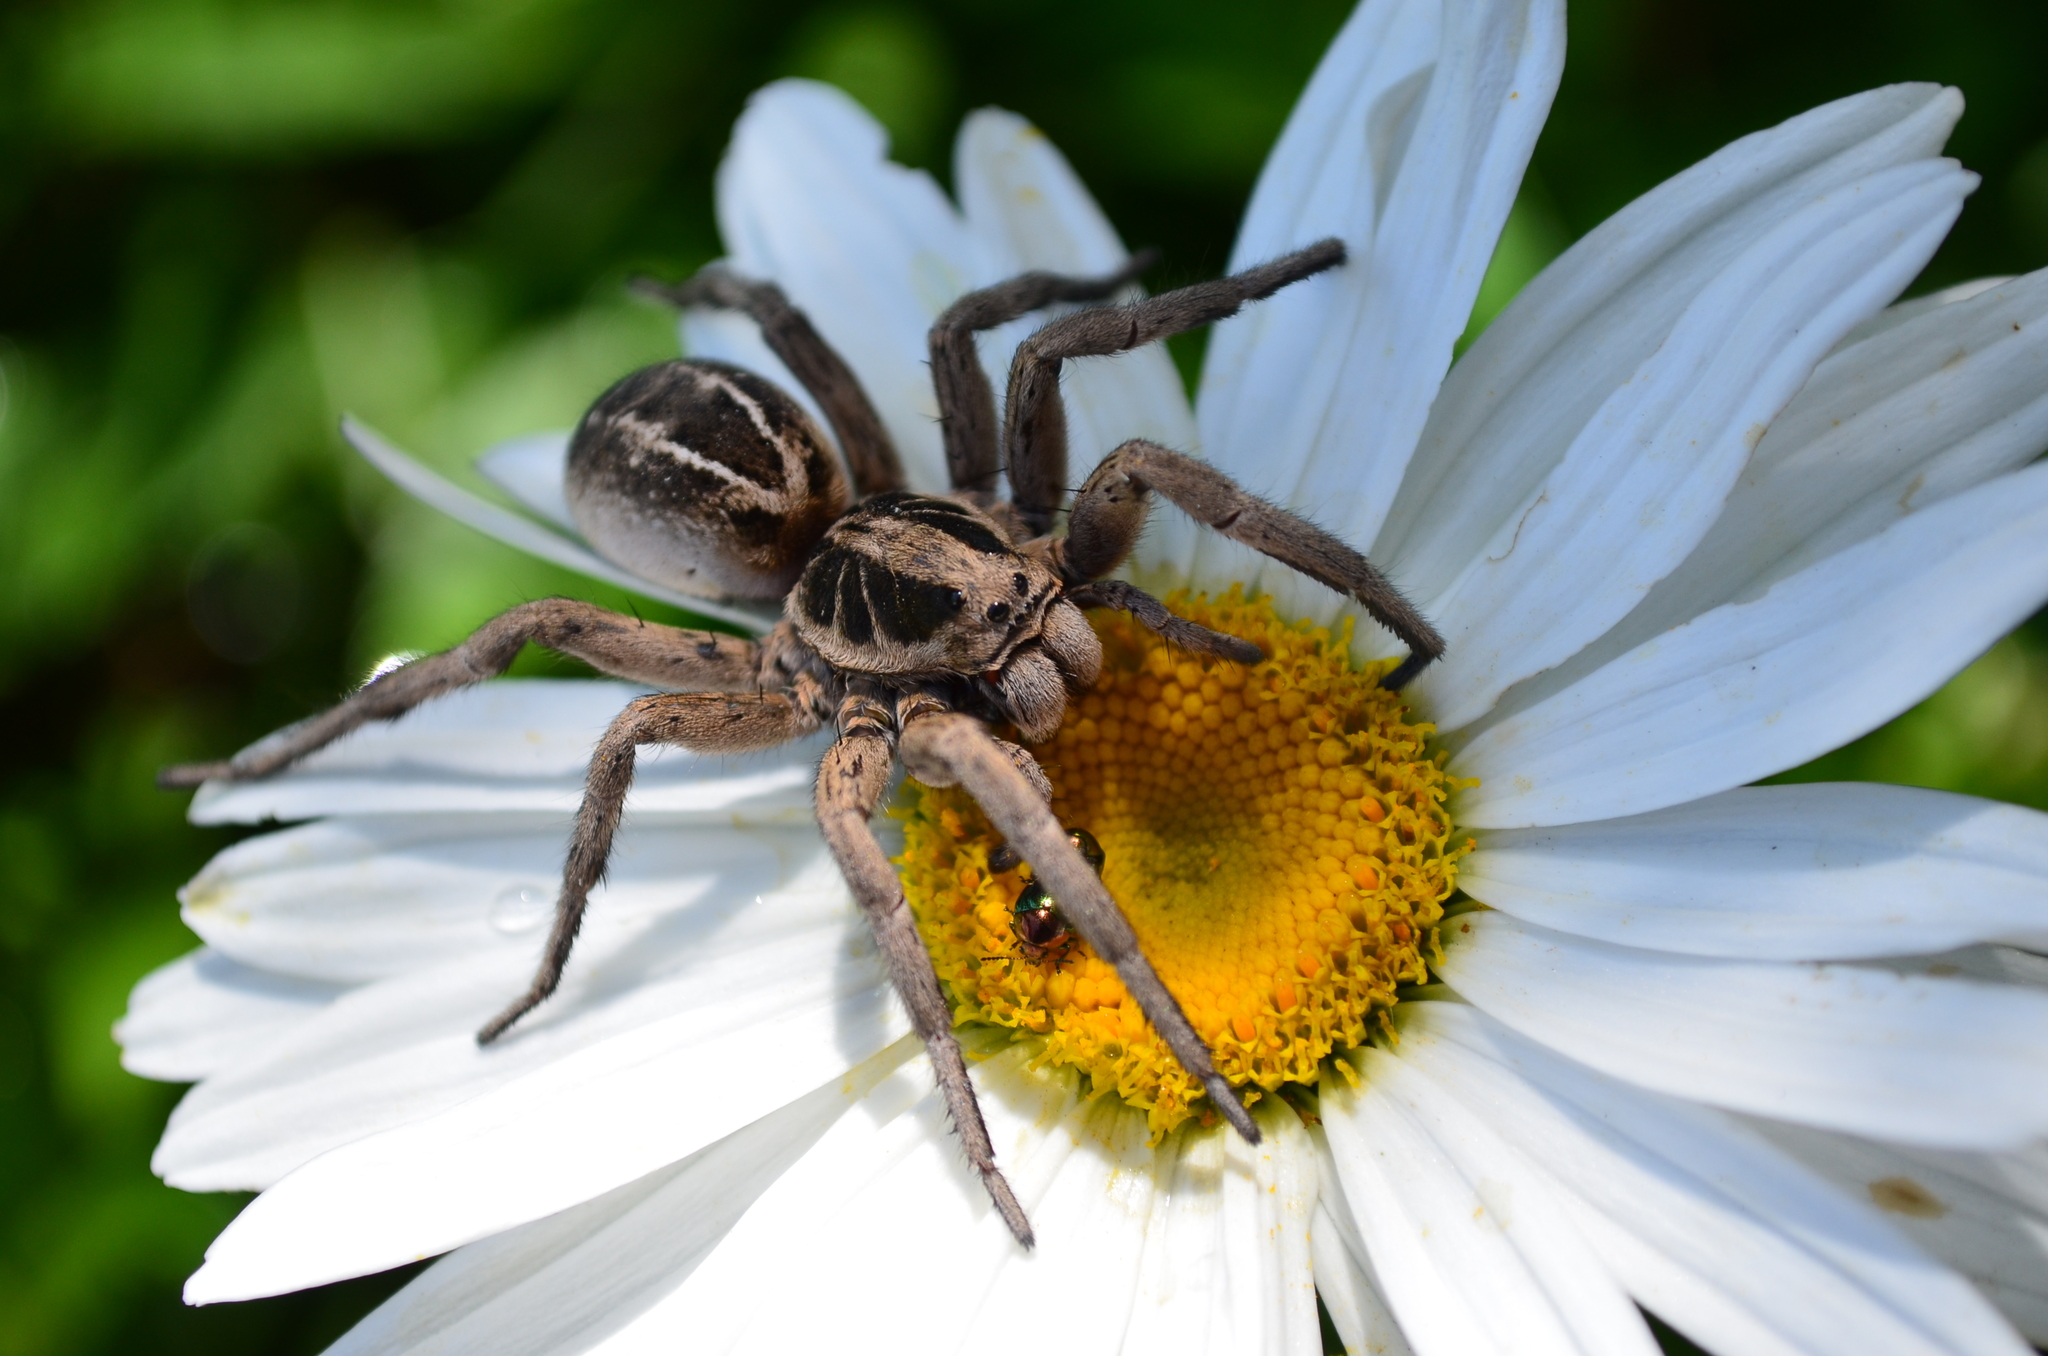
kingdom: Animalia
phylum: Arthropoda
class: Arachnida
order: Araneae
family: Lycosidae
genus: Lycosa
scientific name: Lycosa pampeana
